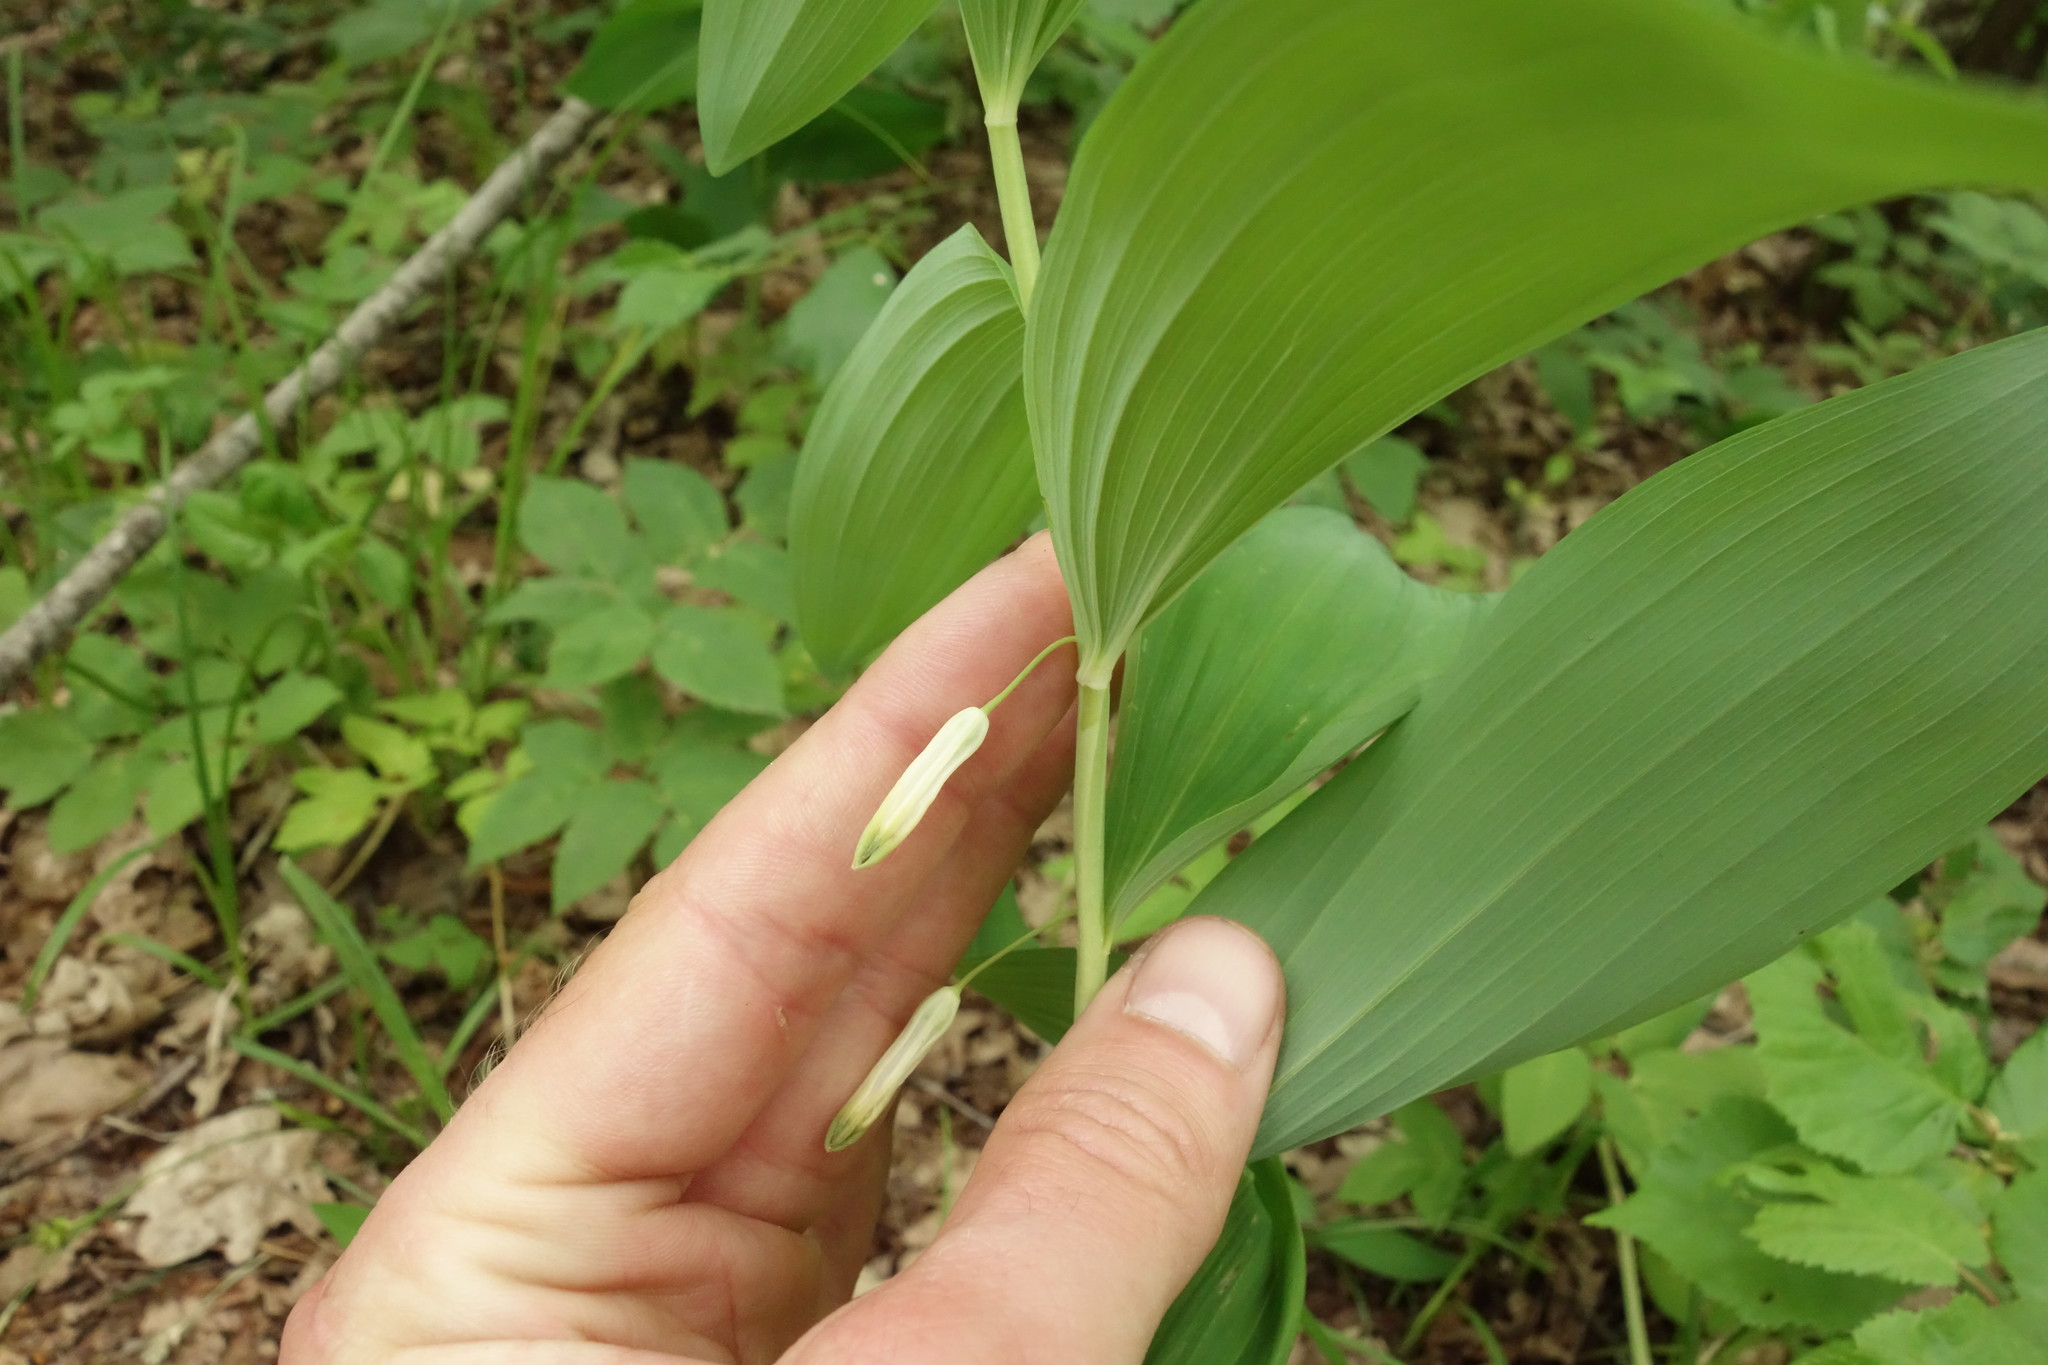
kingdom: Plantae
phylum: Tracheophyta
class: Liliopsida
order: Asparagales
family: Asparagaceae
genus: Polygonatum
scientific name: Polygonatum odoratum
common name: Angular solomon's-seal
